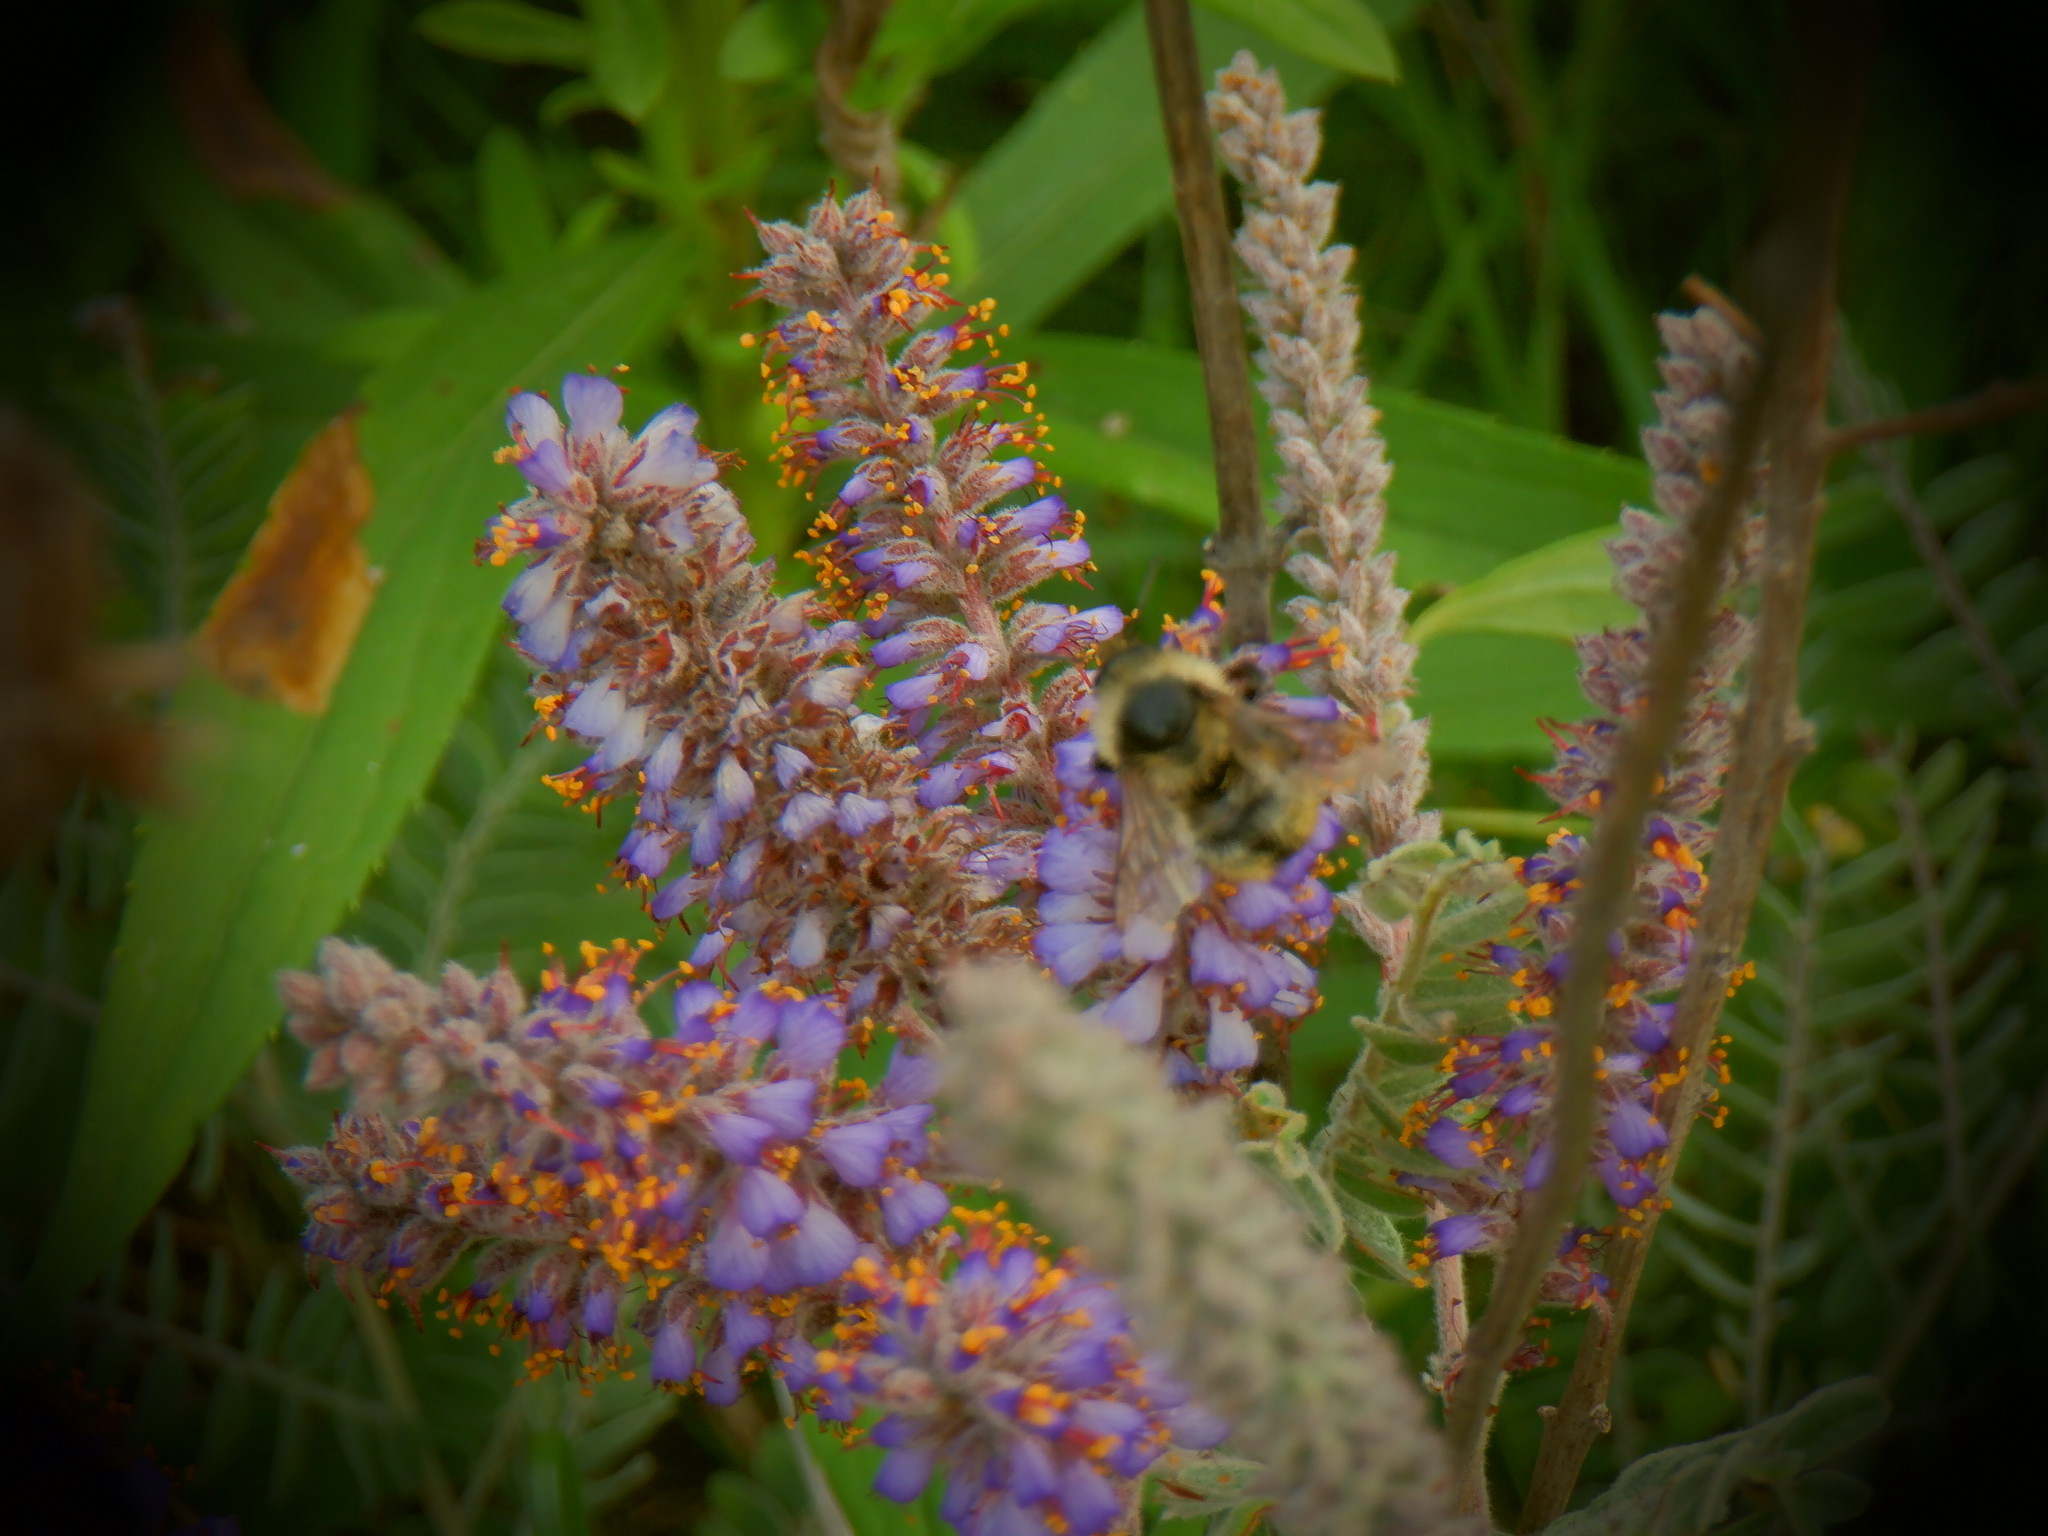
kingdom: Animalia
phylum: Arthropoda
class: Insecta
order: Hymenoptera
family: Apidae
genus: Bombus
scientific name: Bombus rufocinctus
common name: Red-belted bumble bee
